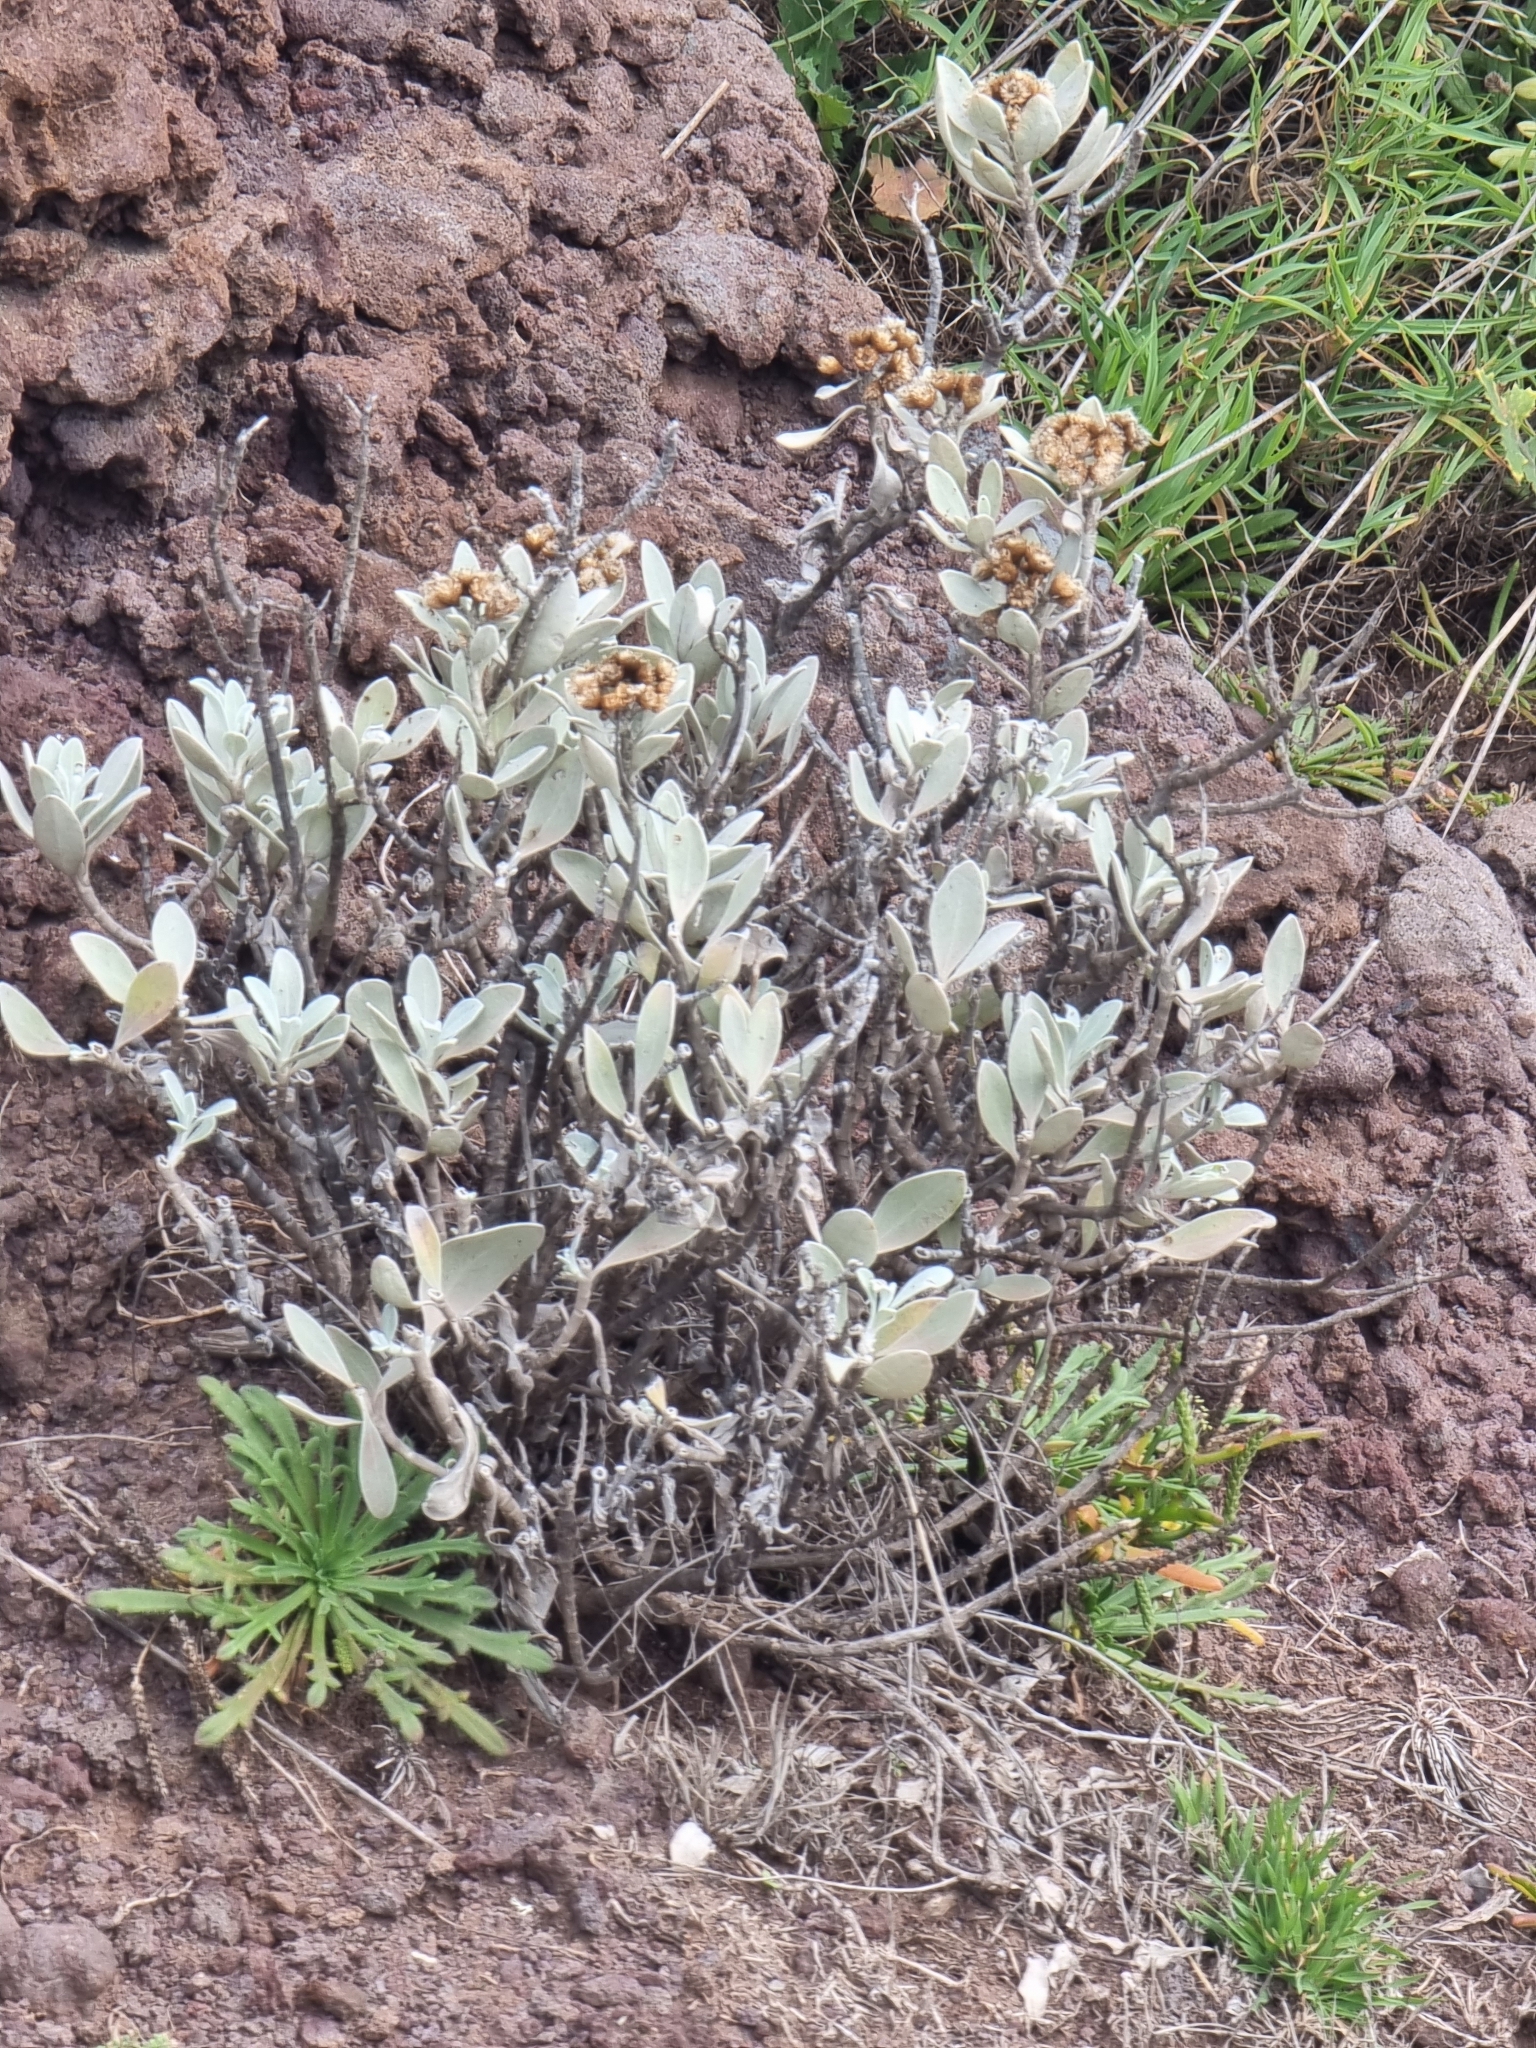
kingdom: Plantae
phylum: Tracheophyta
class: Magnoliopsida
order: Asterales
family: Asteraceae
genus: Helichrysum
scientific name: Helichrysum obconicum
